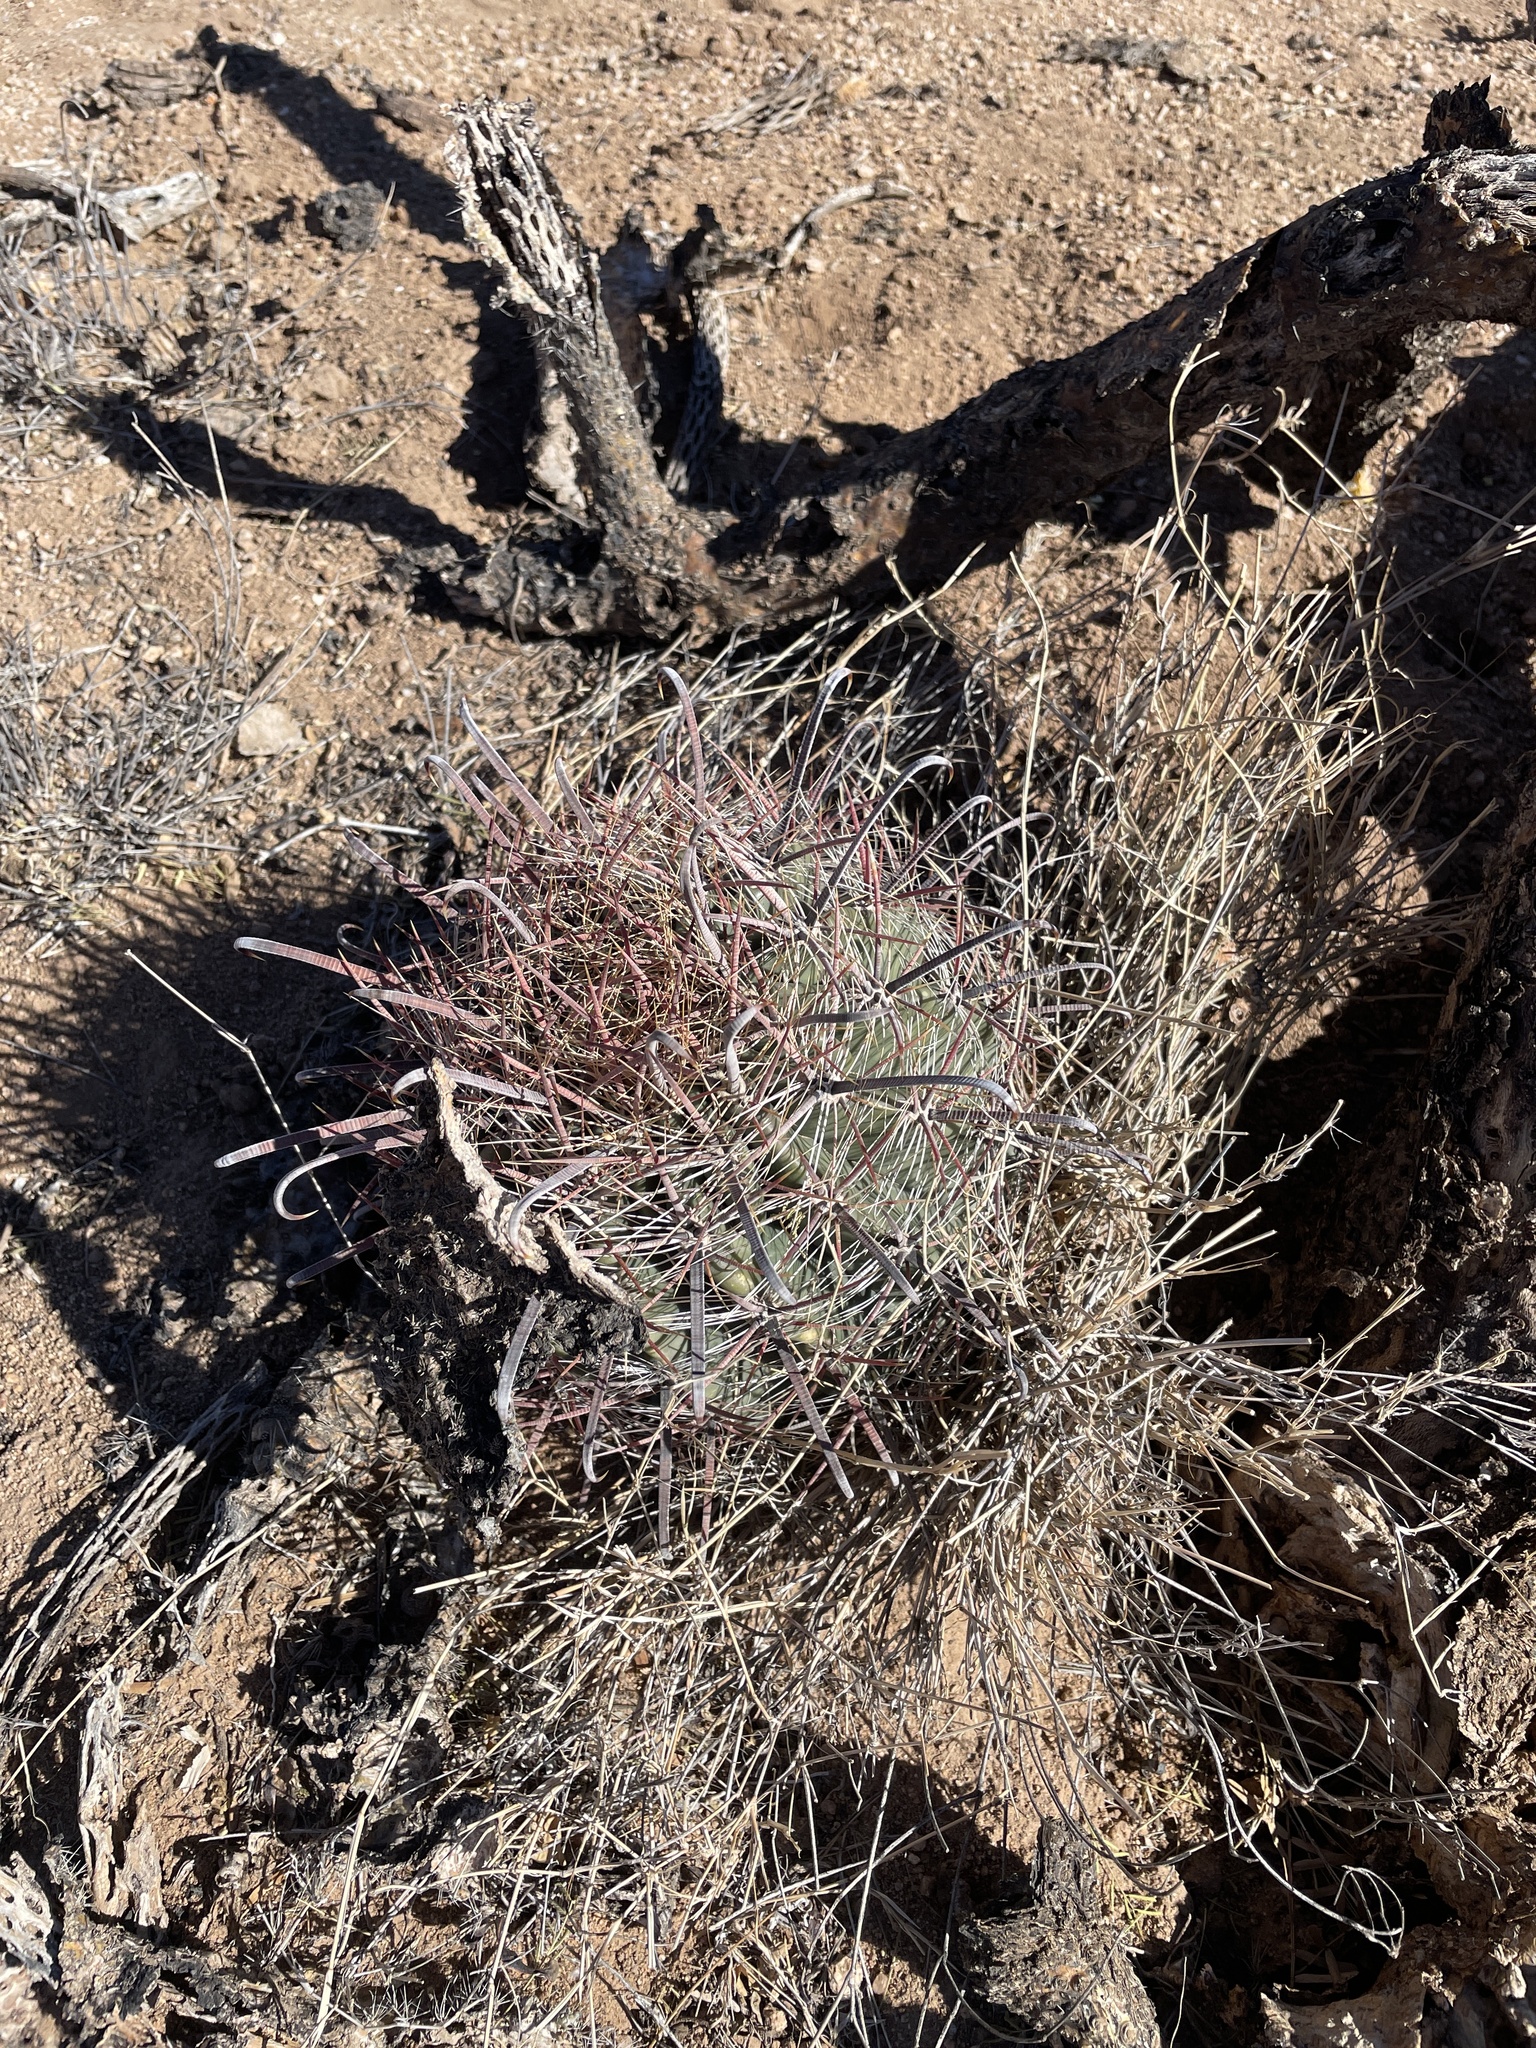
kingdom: Plantae
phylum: Tracheophyta
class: Magnoliopsida
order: Caryophyllales
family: Cactaceae
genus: Ferocactus
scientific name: Ferocactus wislizeni
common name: Candy barrel cactus
